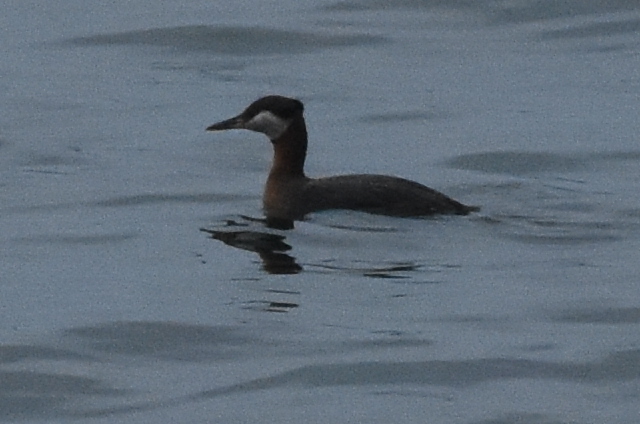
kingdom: Animalia
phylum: Chordata
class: Aves
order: Podicipediformes
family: Podicipedidae
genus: Podiceps
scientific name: Podiceps grisegena
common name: Red-necked grebe
